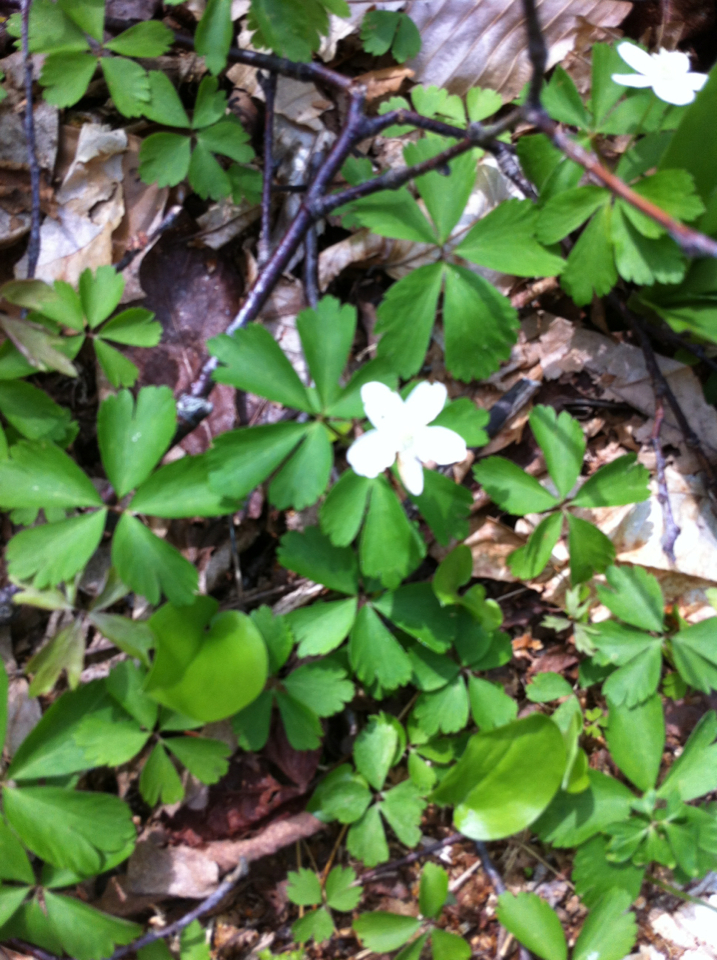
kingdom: Plantae
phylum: Tracheophyta
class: Magnoliopsida
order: Ranunculales
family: Ranunculaceae
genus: Anemone
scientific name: Anemone quinquefolia
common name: Wood anemone
